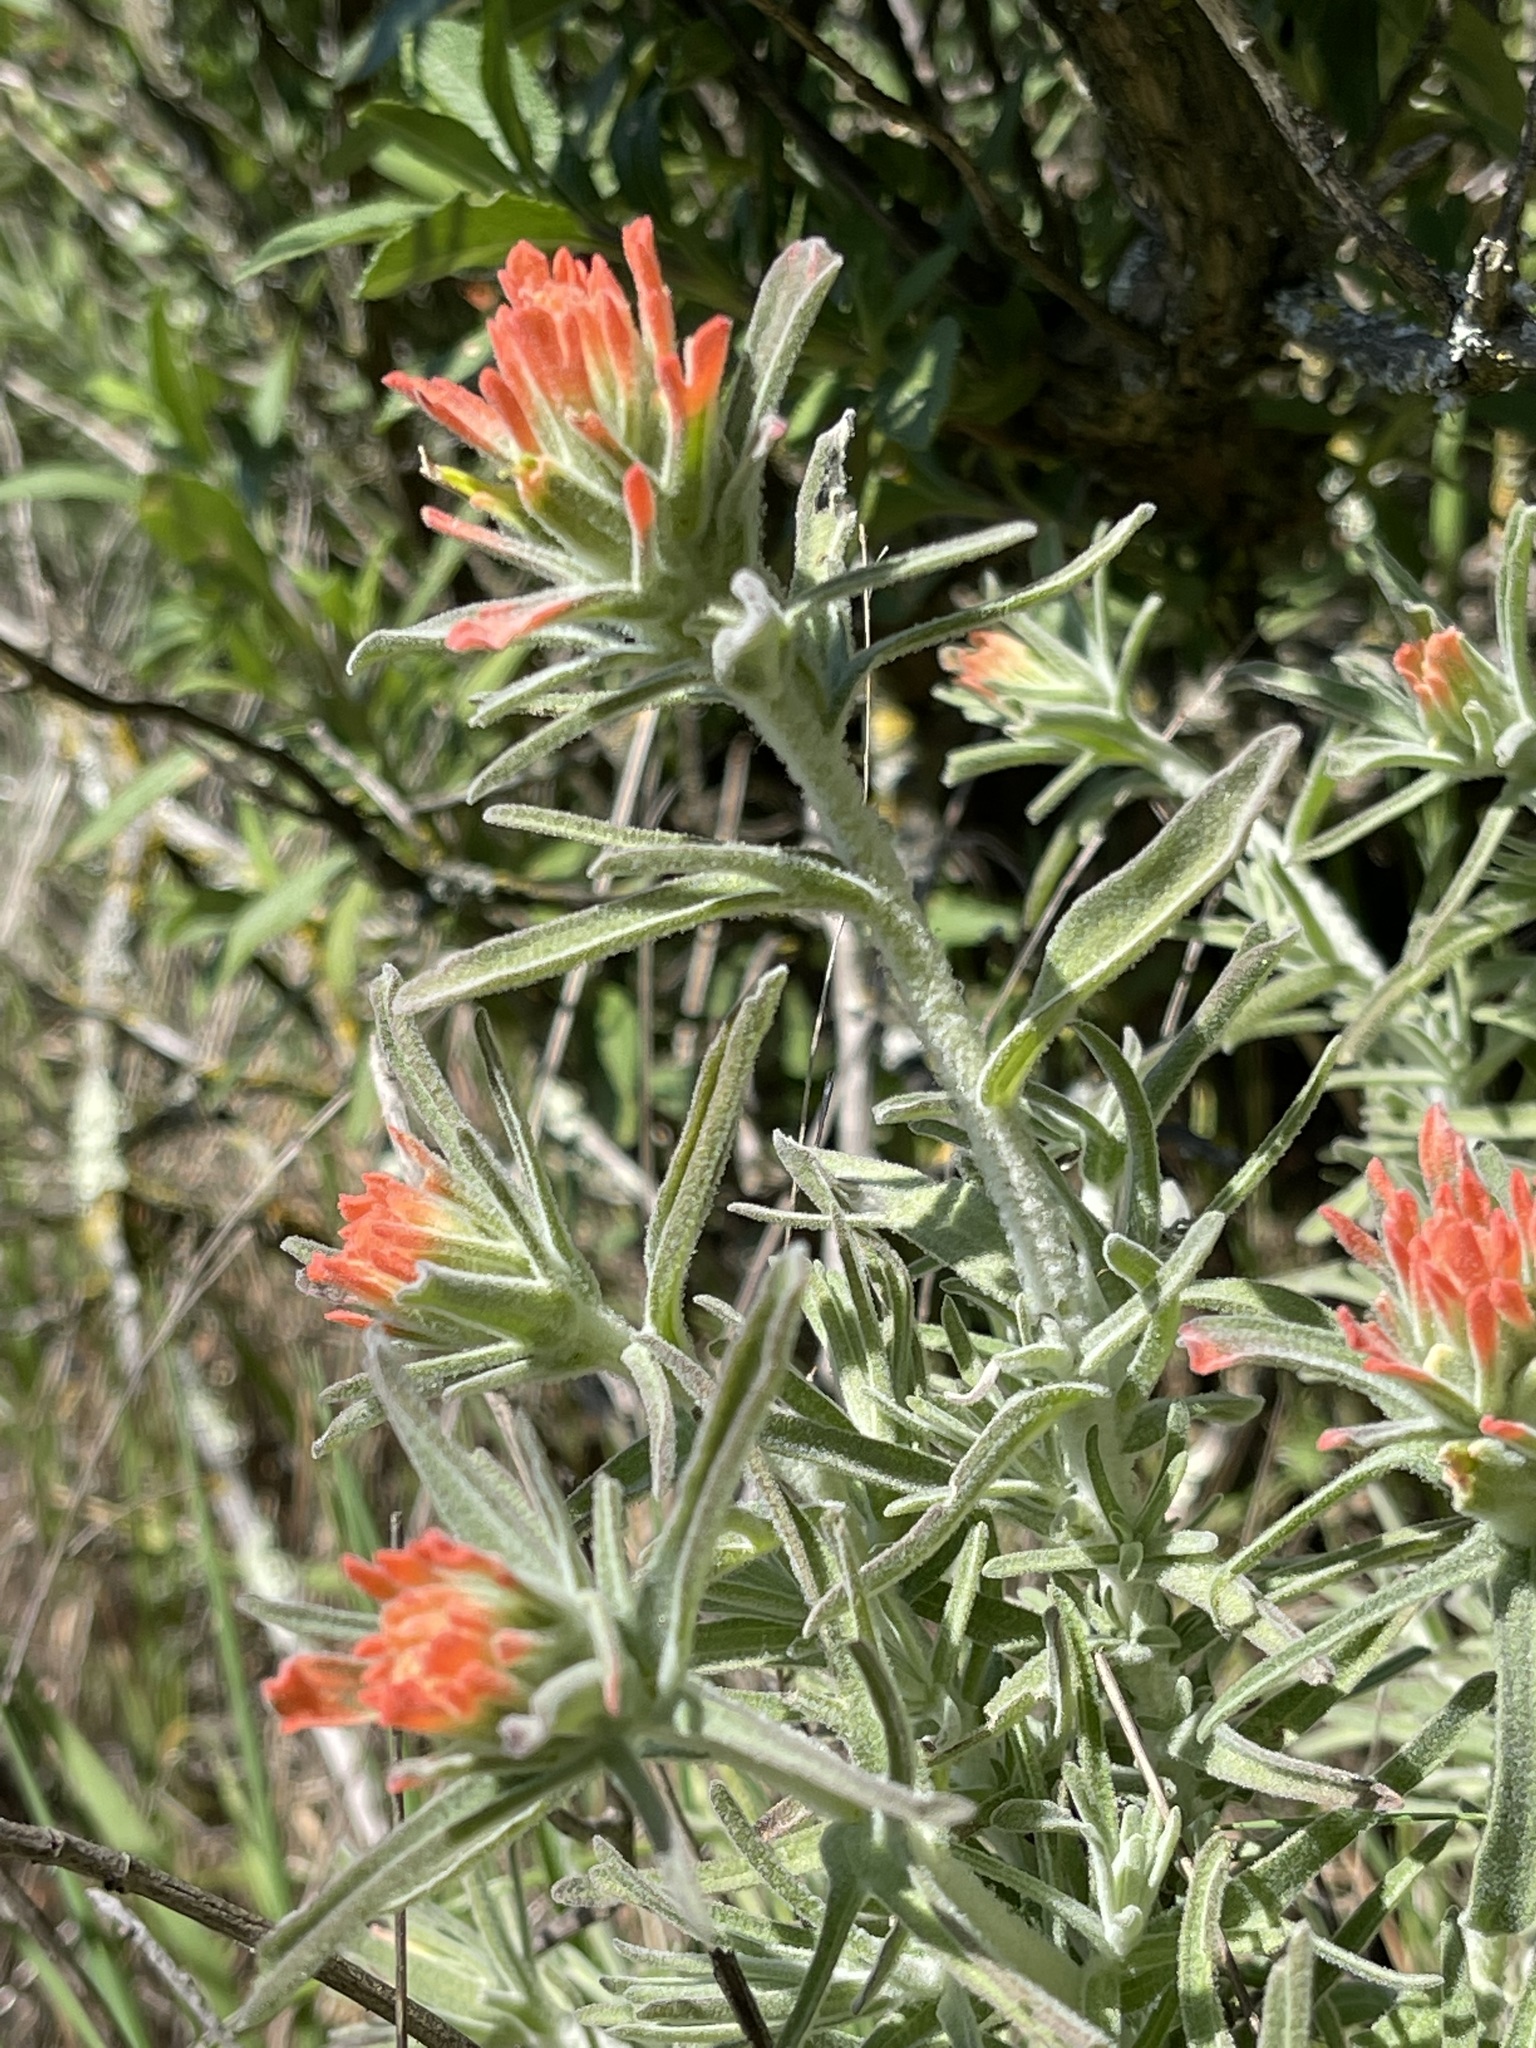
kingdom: Plantae
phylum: Tracheophyta
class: Magnoliopsida
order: Lamiales
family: Orobanchaceae
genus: Castilleja
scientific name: Castilleja foliolosa
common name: Woolly indian paintbrush
